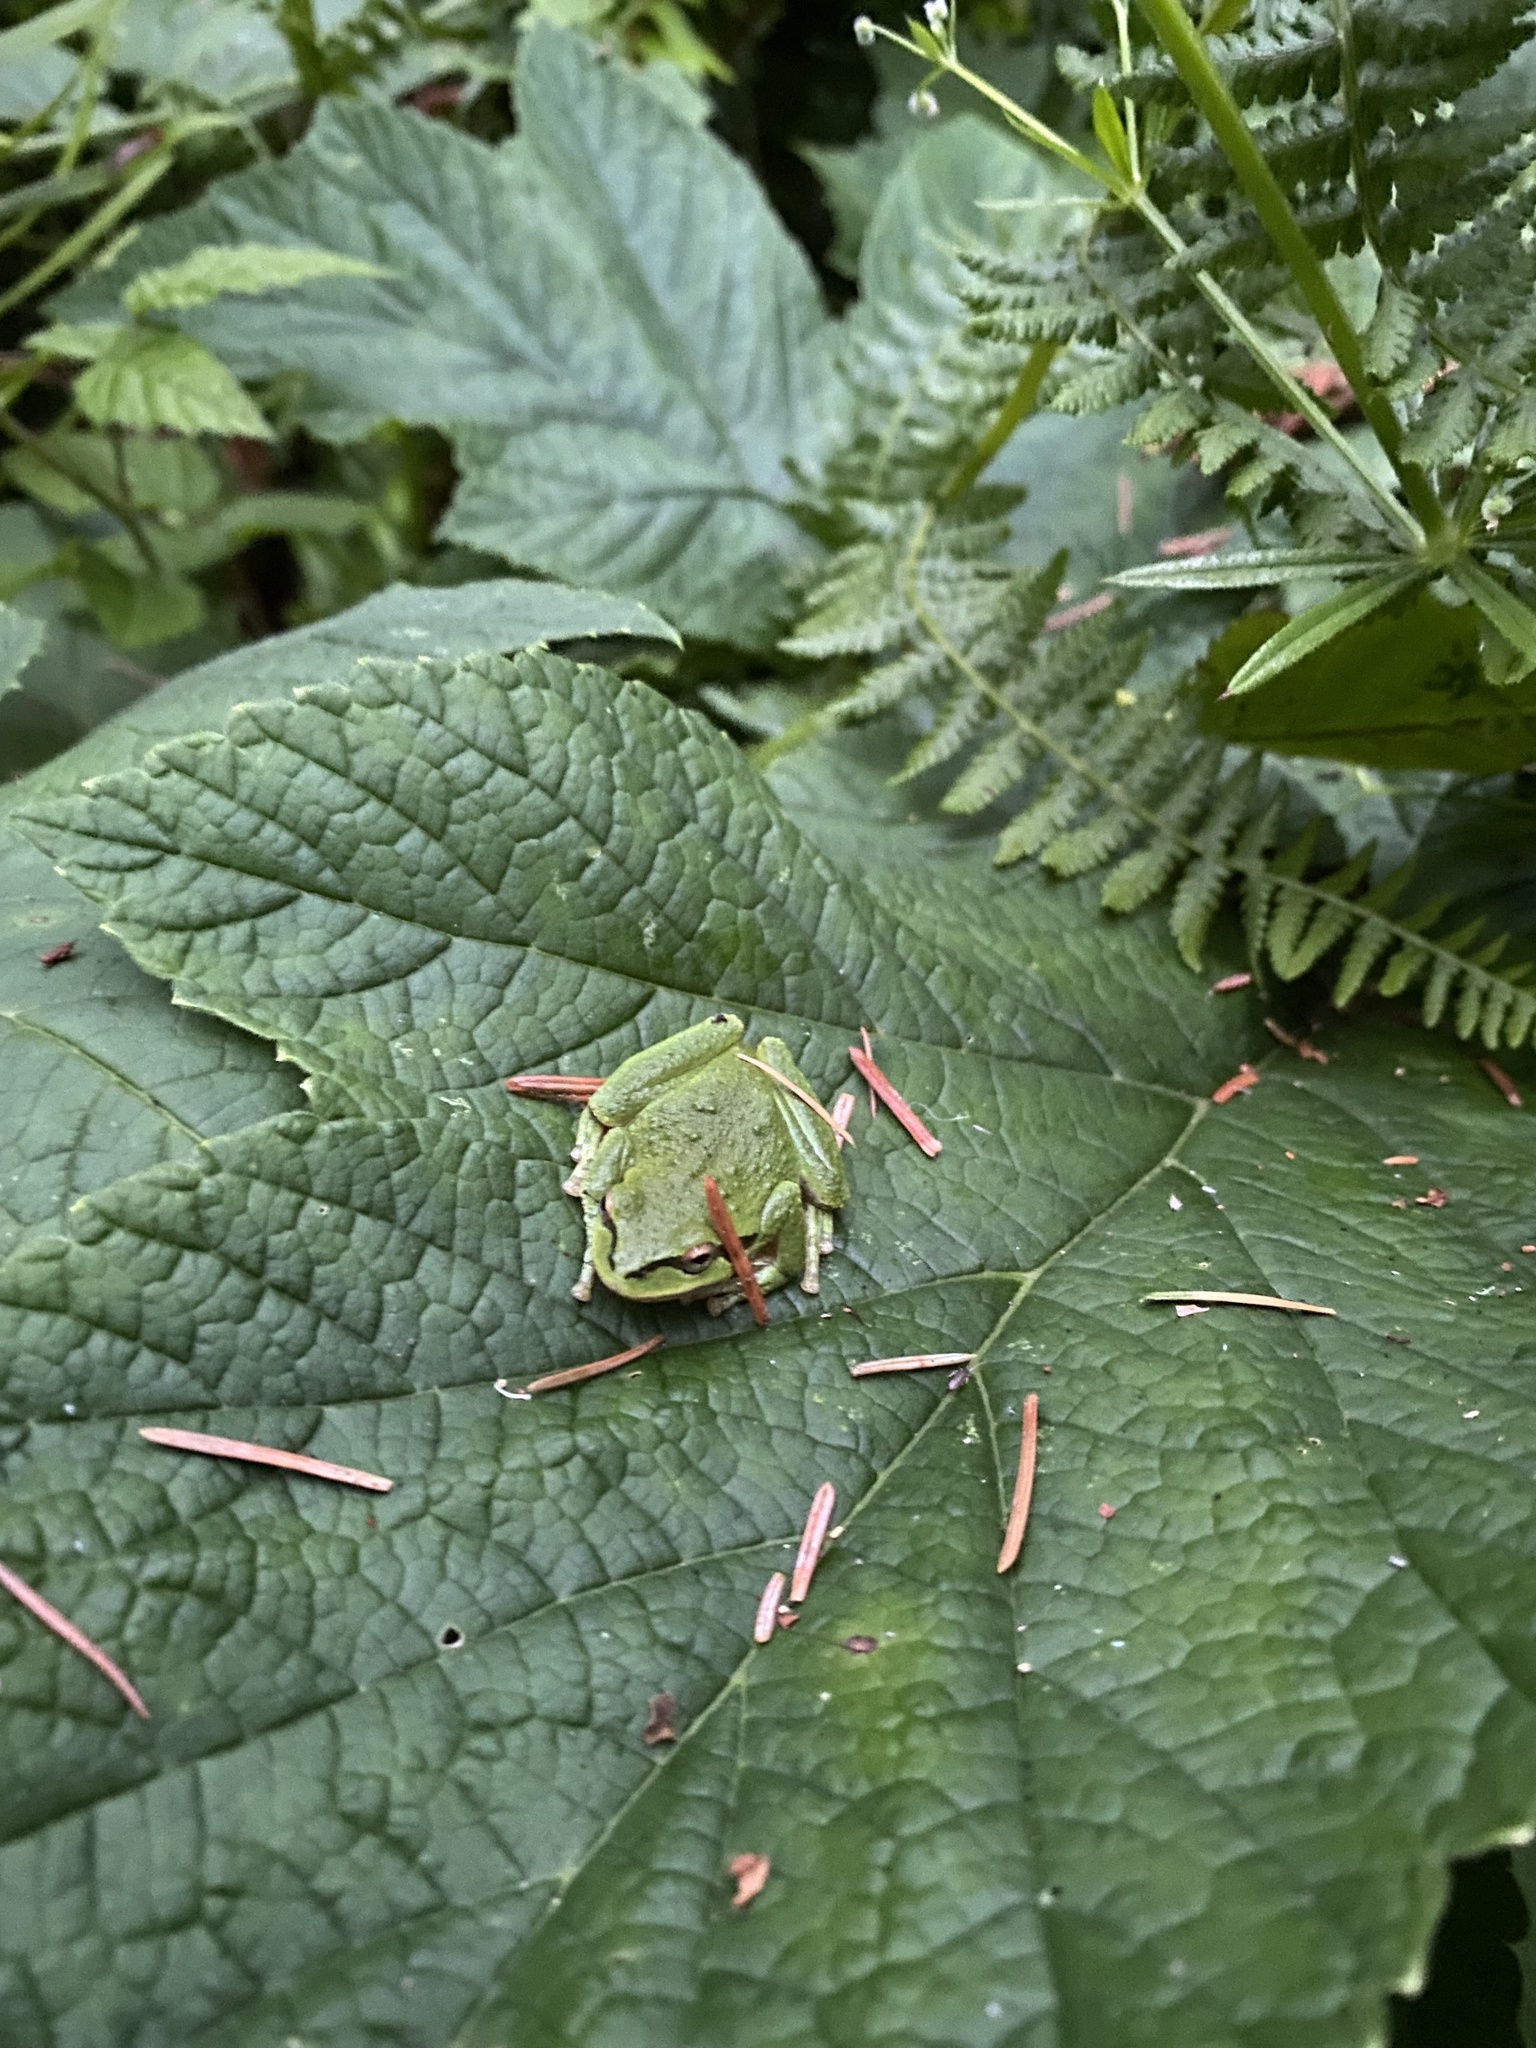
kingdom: Animalia
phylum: Chordata
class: Amphibia
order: Anura
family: Hylidae
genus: Pseudacris
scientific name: Pseudacris regilla
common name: Pacific chorus frog
